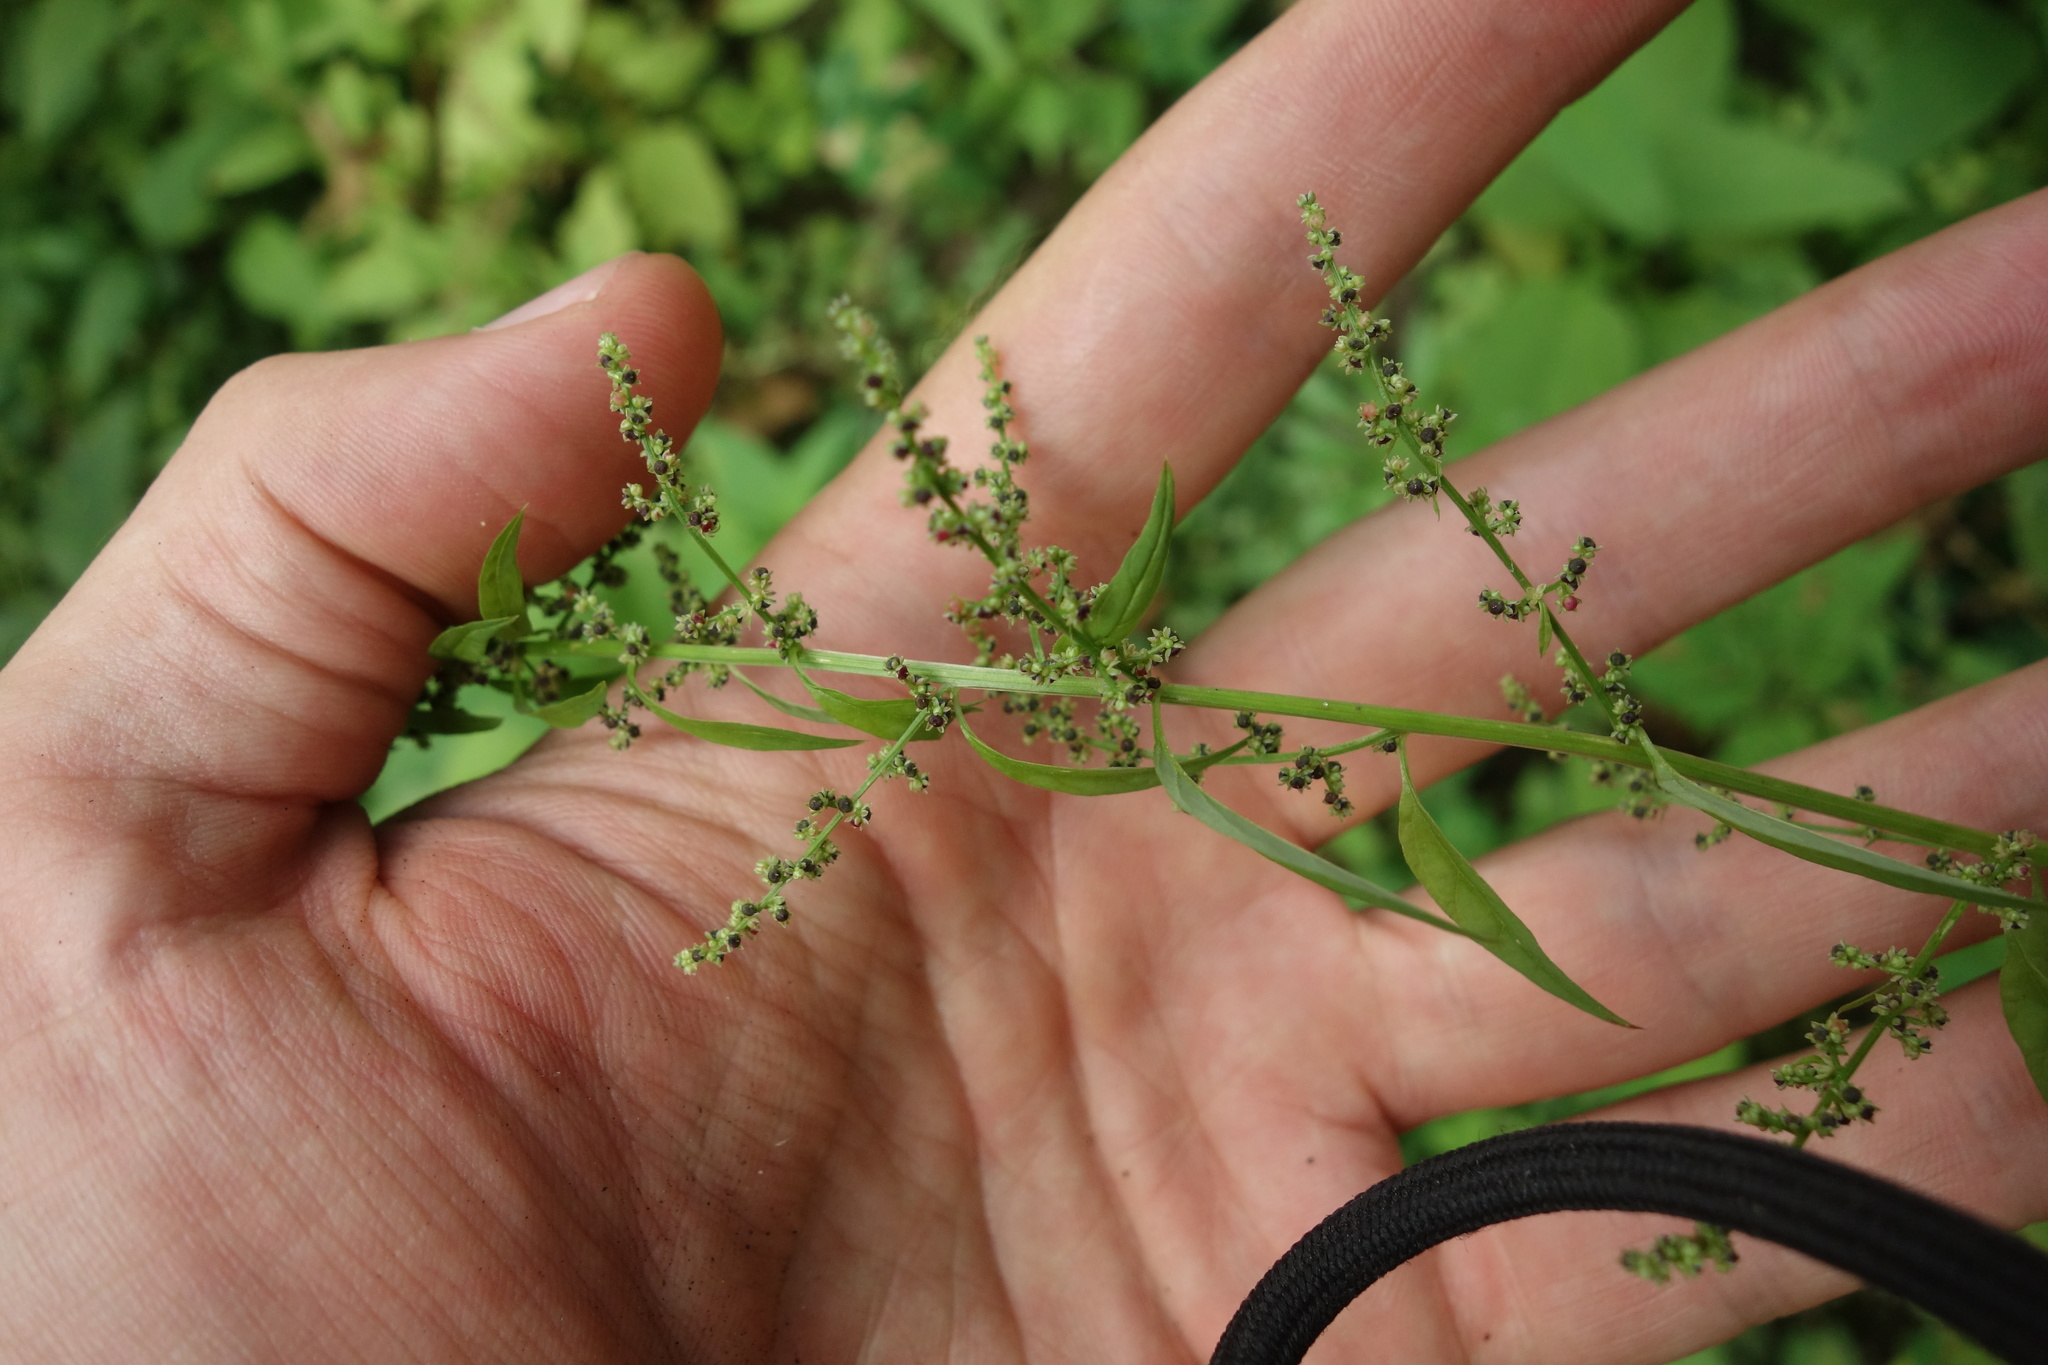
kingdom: Plantae
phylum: Tracheophyta
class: Magnoliopsida
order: Caryophyllales
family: Amaranthaceae
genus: Lipandra
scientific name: Lipandra polysperma
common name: Many-seed goosefoot
